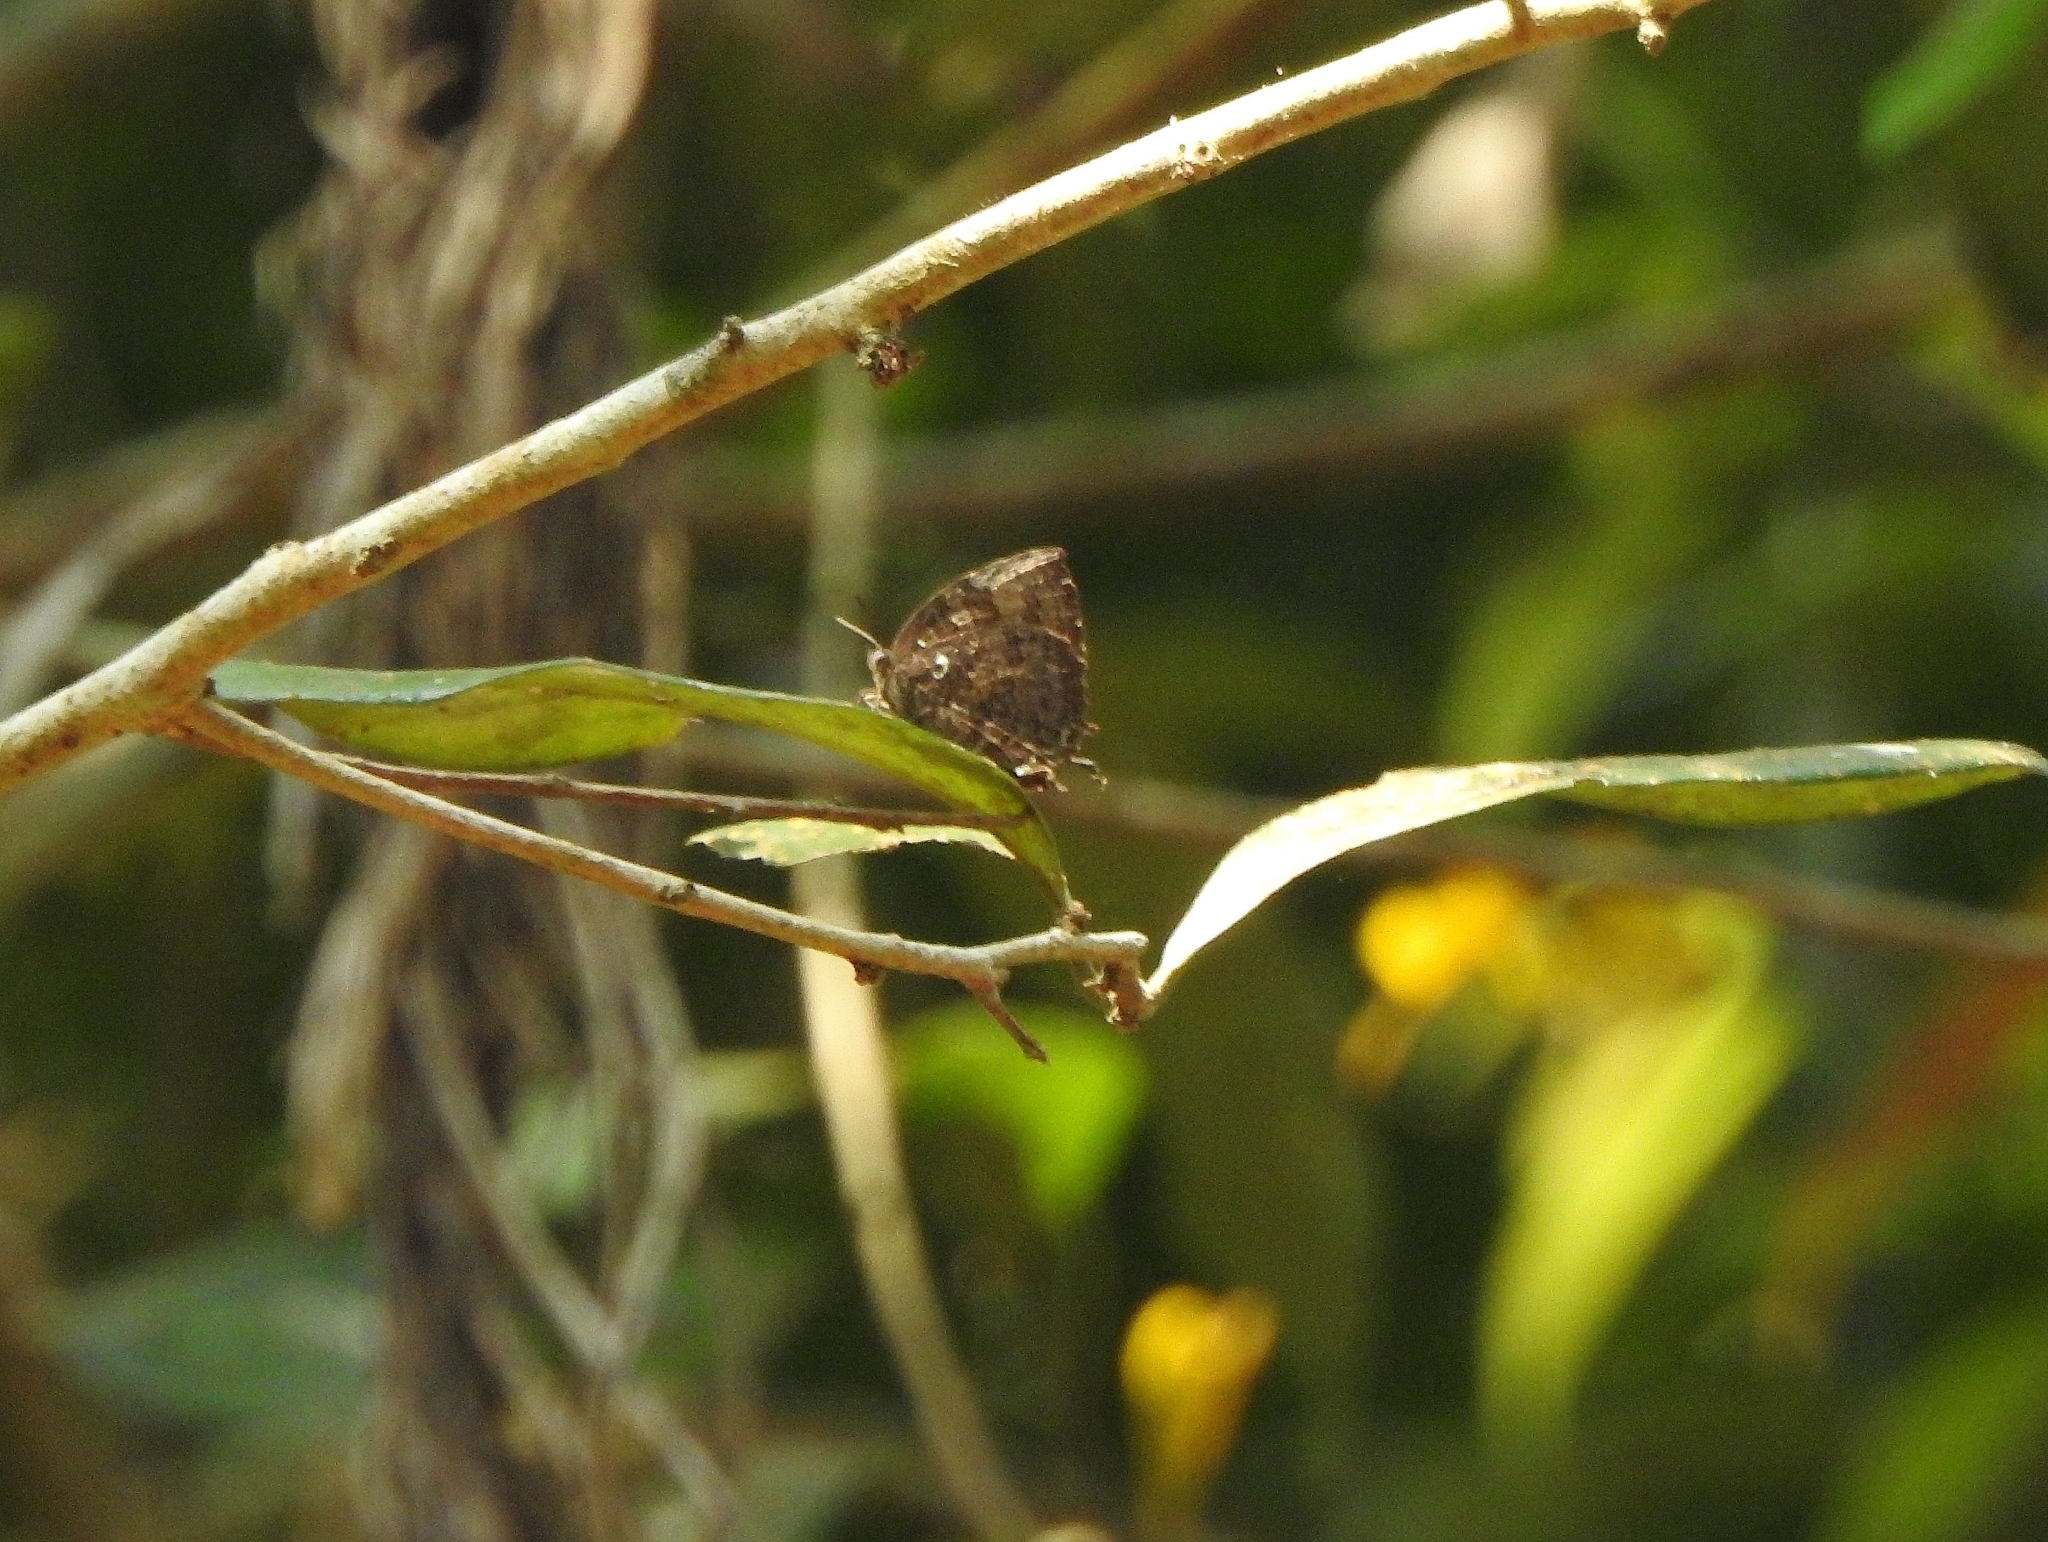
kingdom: Animalia
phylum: Arthropoda
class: Insecta
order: Lepidoptera
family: Lycaenidae
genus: Thaduka
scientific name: Thaduka multicaudata
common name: Many-tailed oakblue
